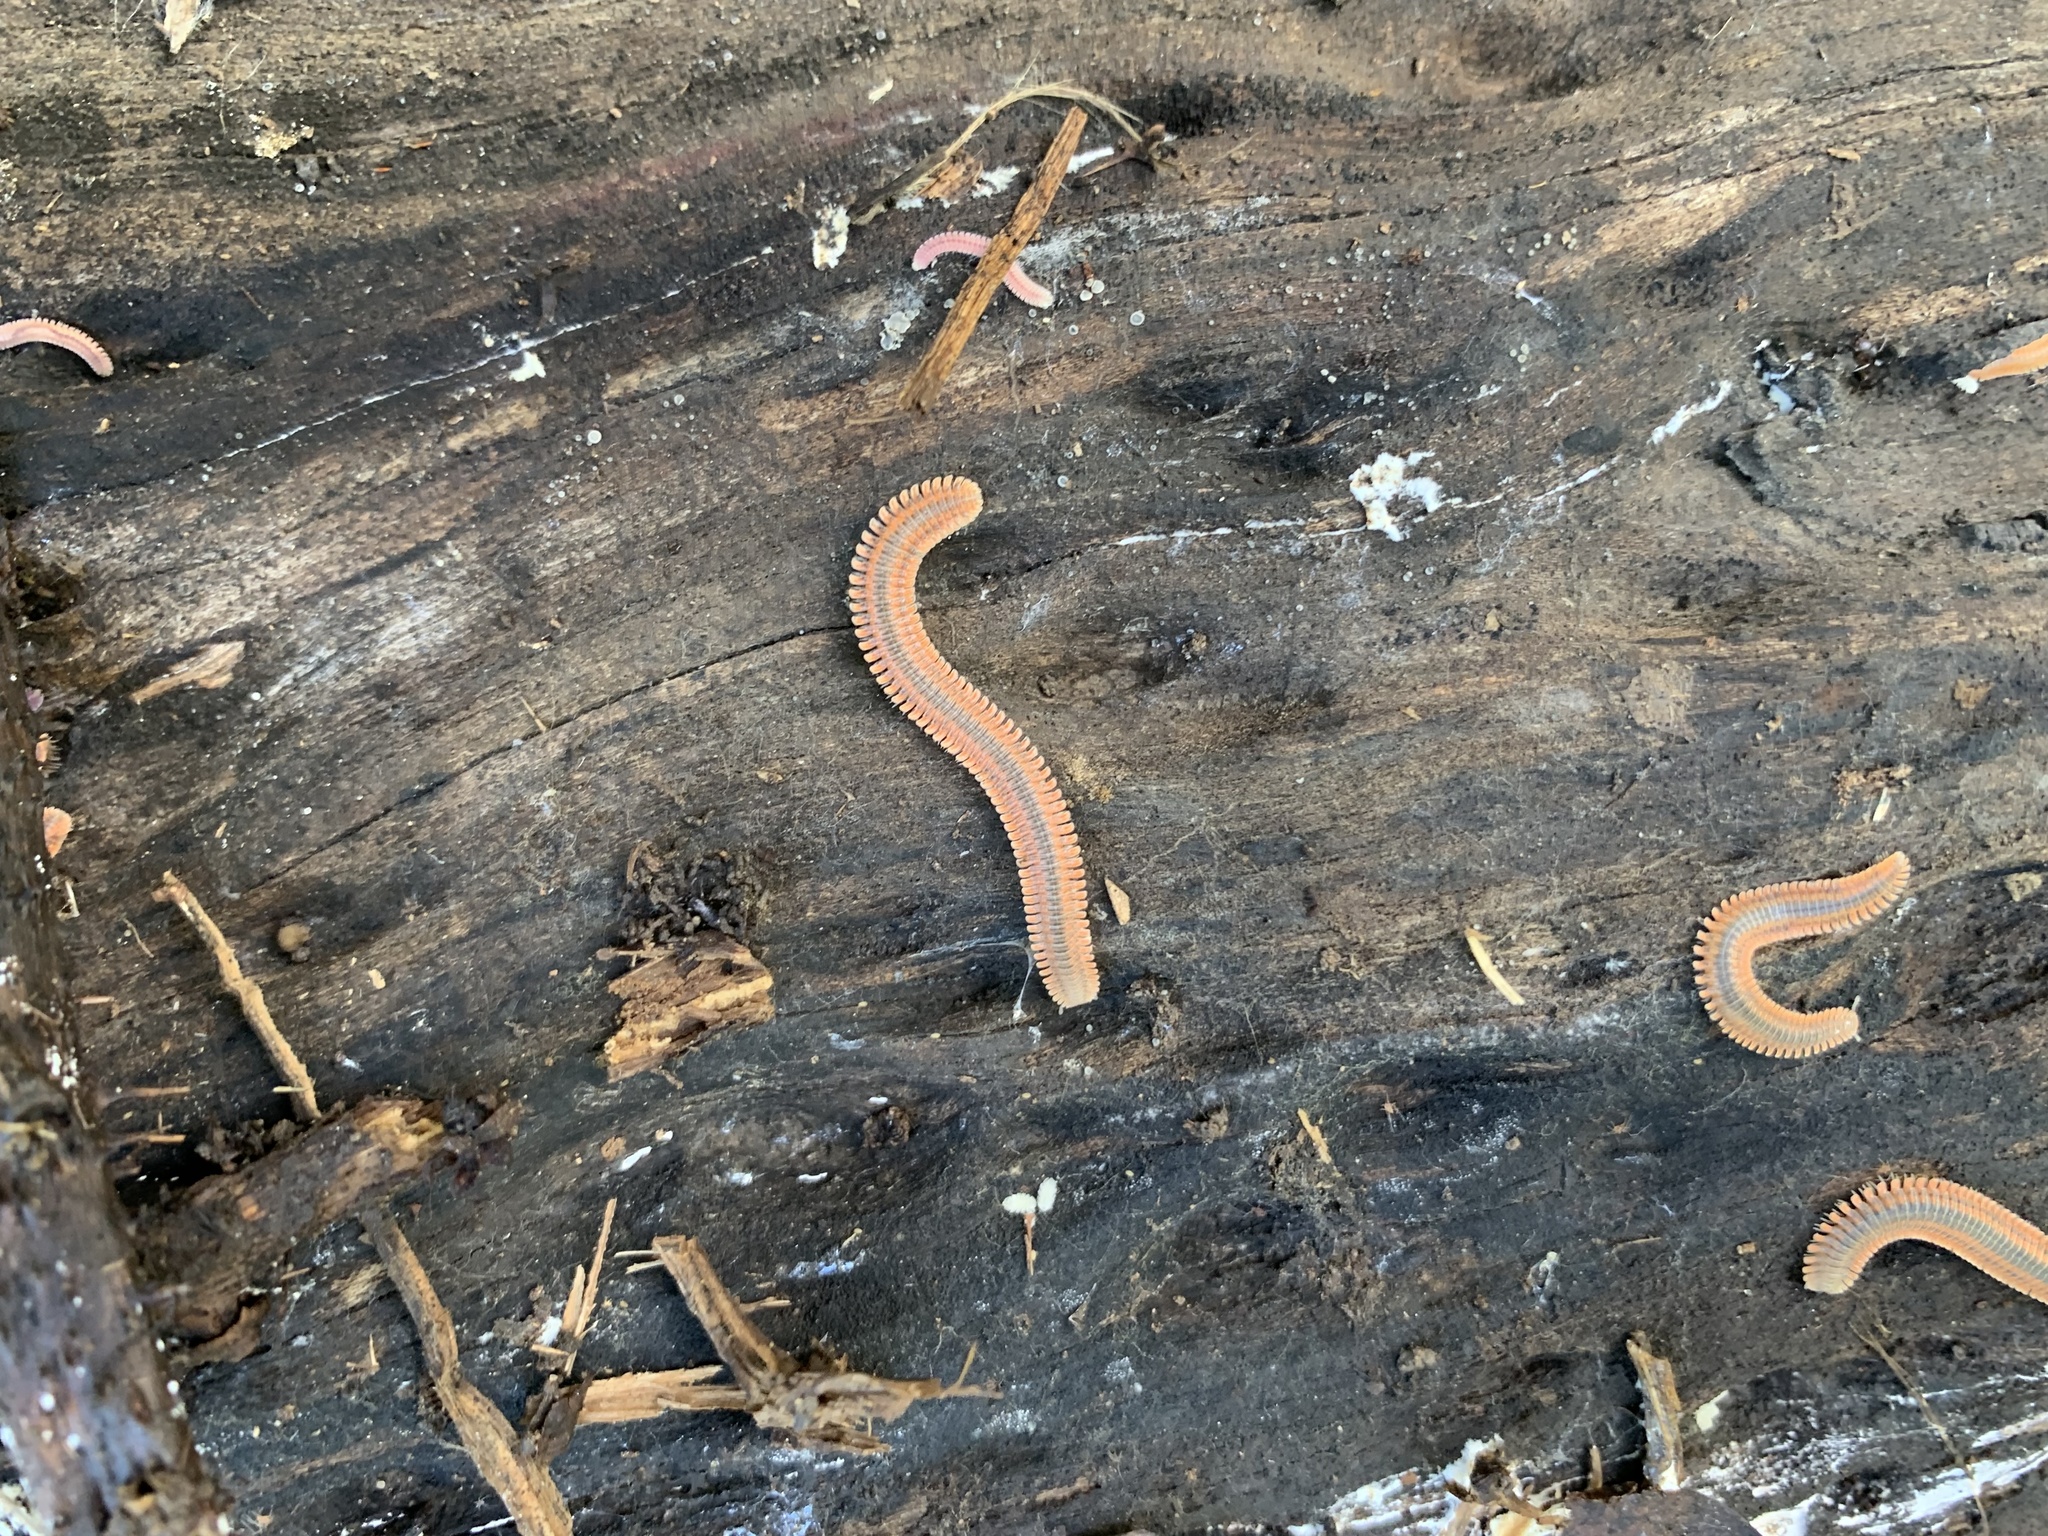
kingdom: Animalia
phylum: Arthropoda
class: Diplopoda
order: Platydesmida
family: Andrognathidae
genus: Brachycybe
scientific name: Brachycybe producta
